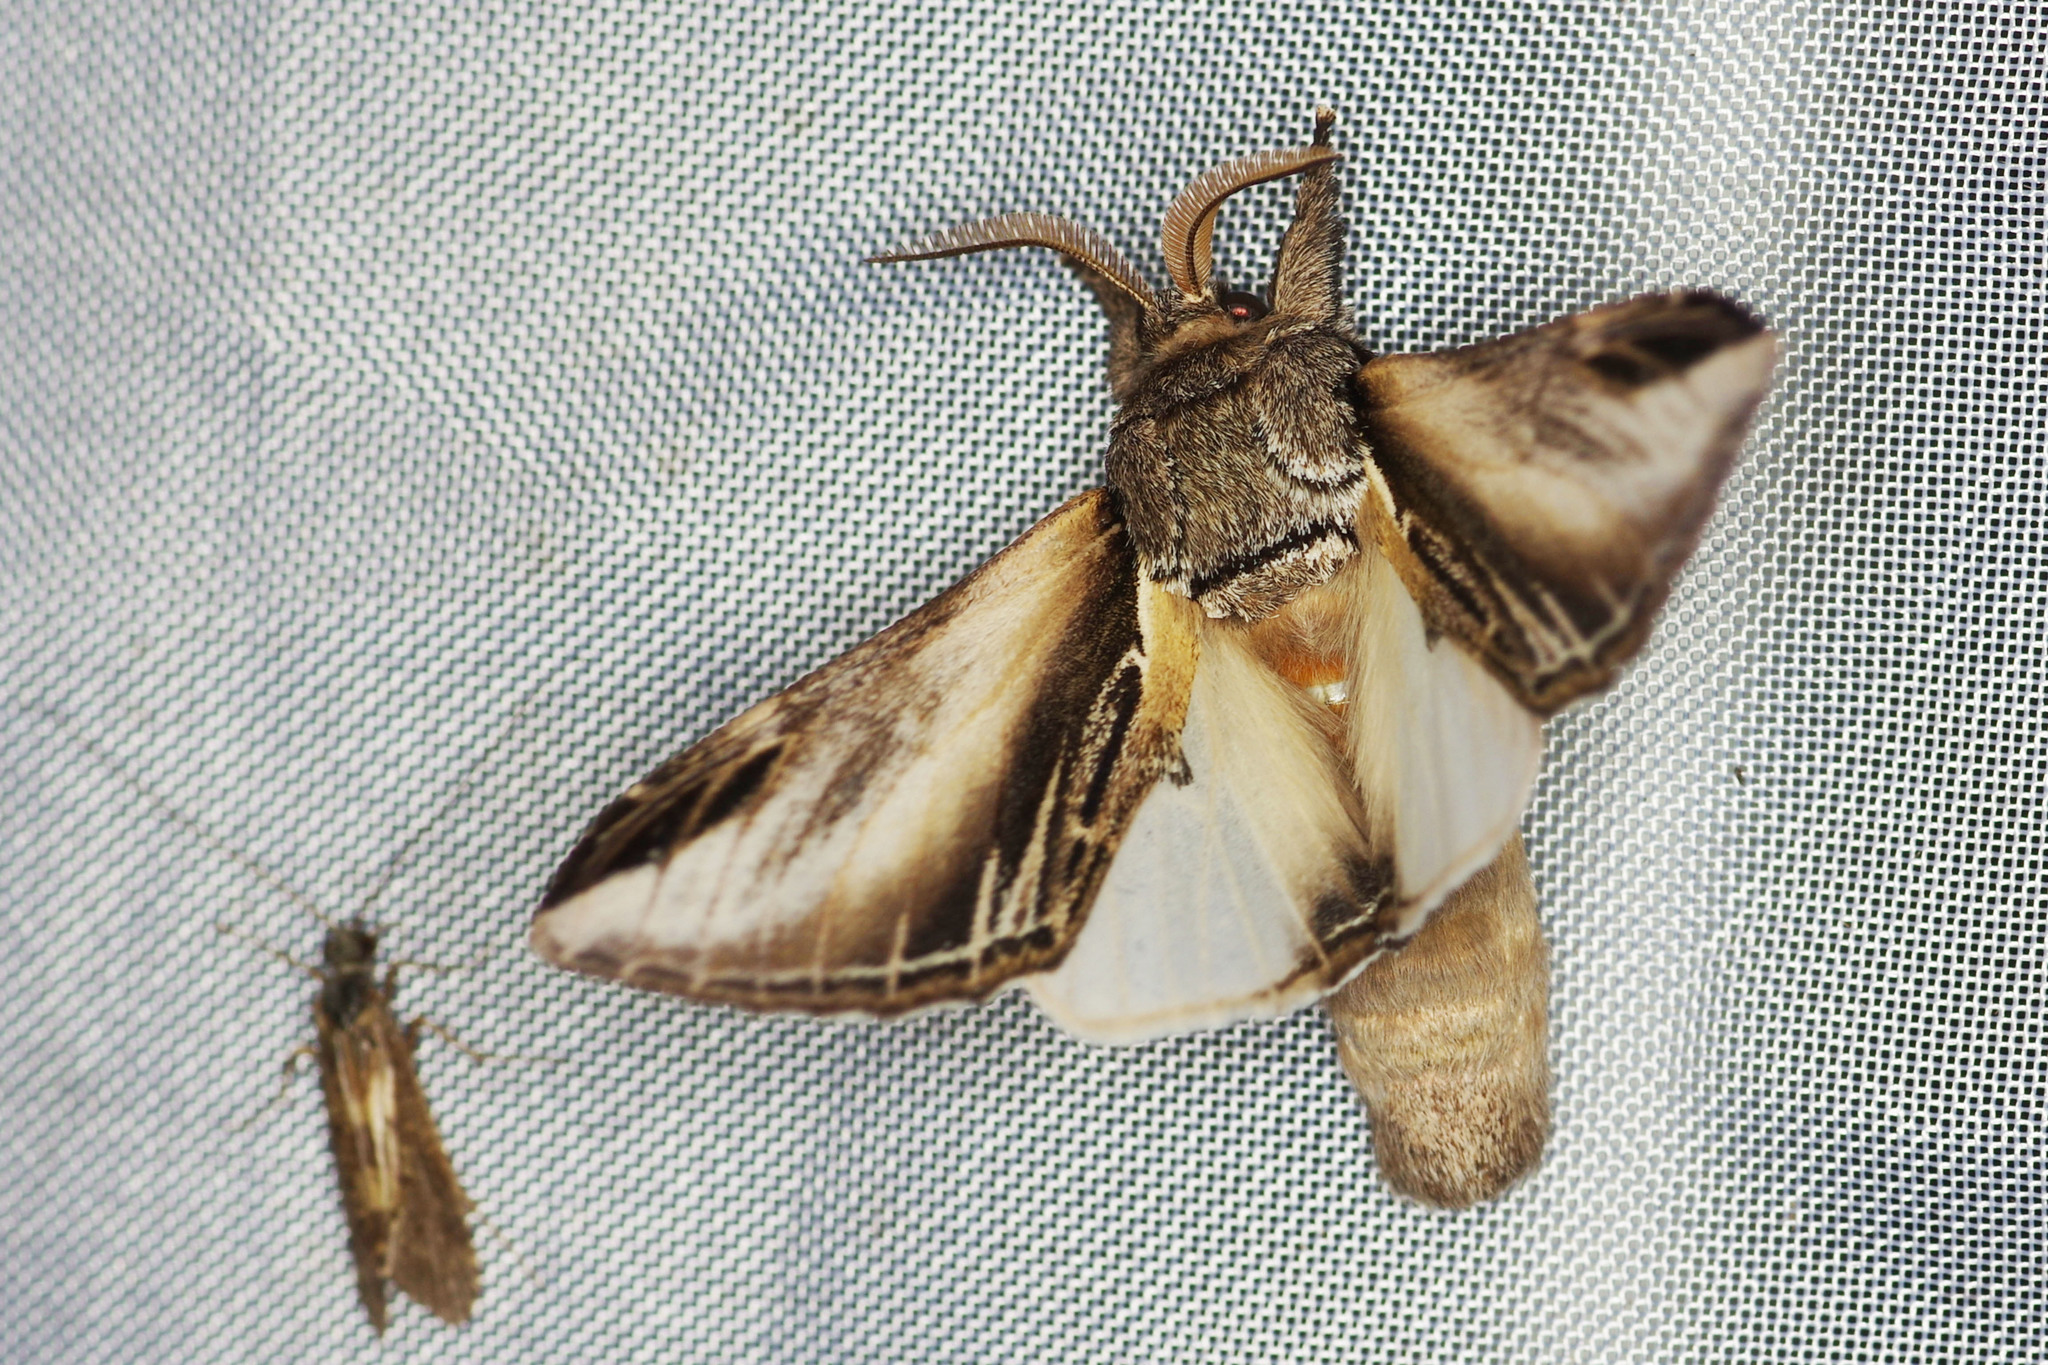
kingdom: Animalia
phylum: Arthropoda
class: Insecta
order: Lepidoptera
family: Notodontidae
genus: Pheosia
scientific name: Pheosia tremula
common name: Swallow prominent
